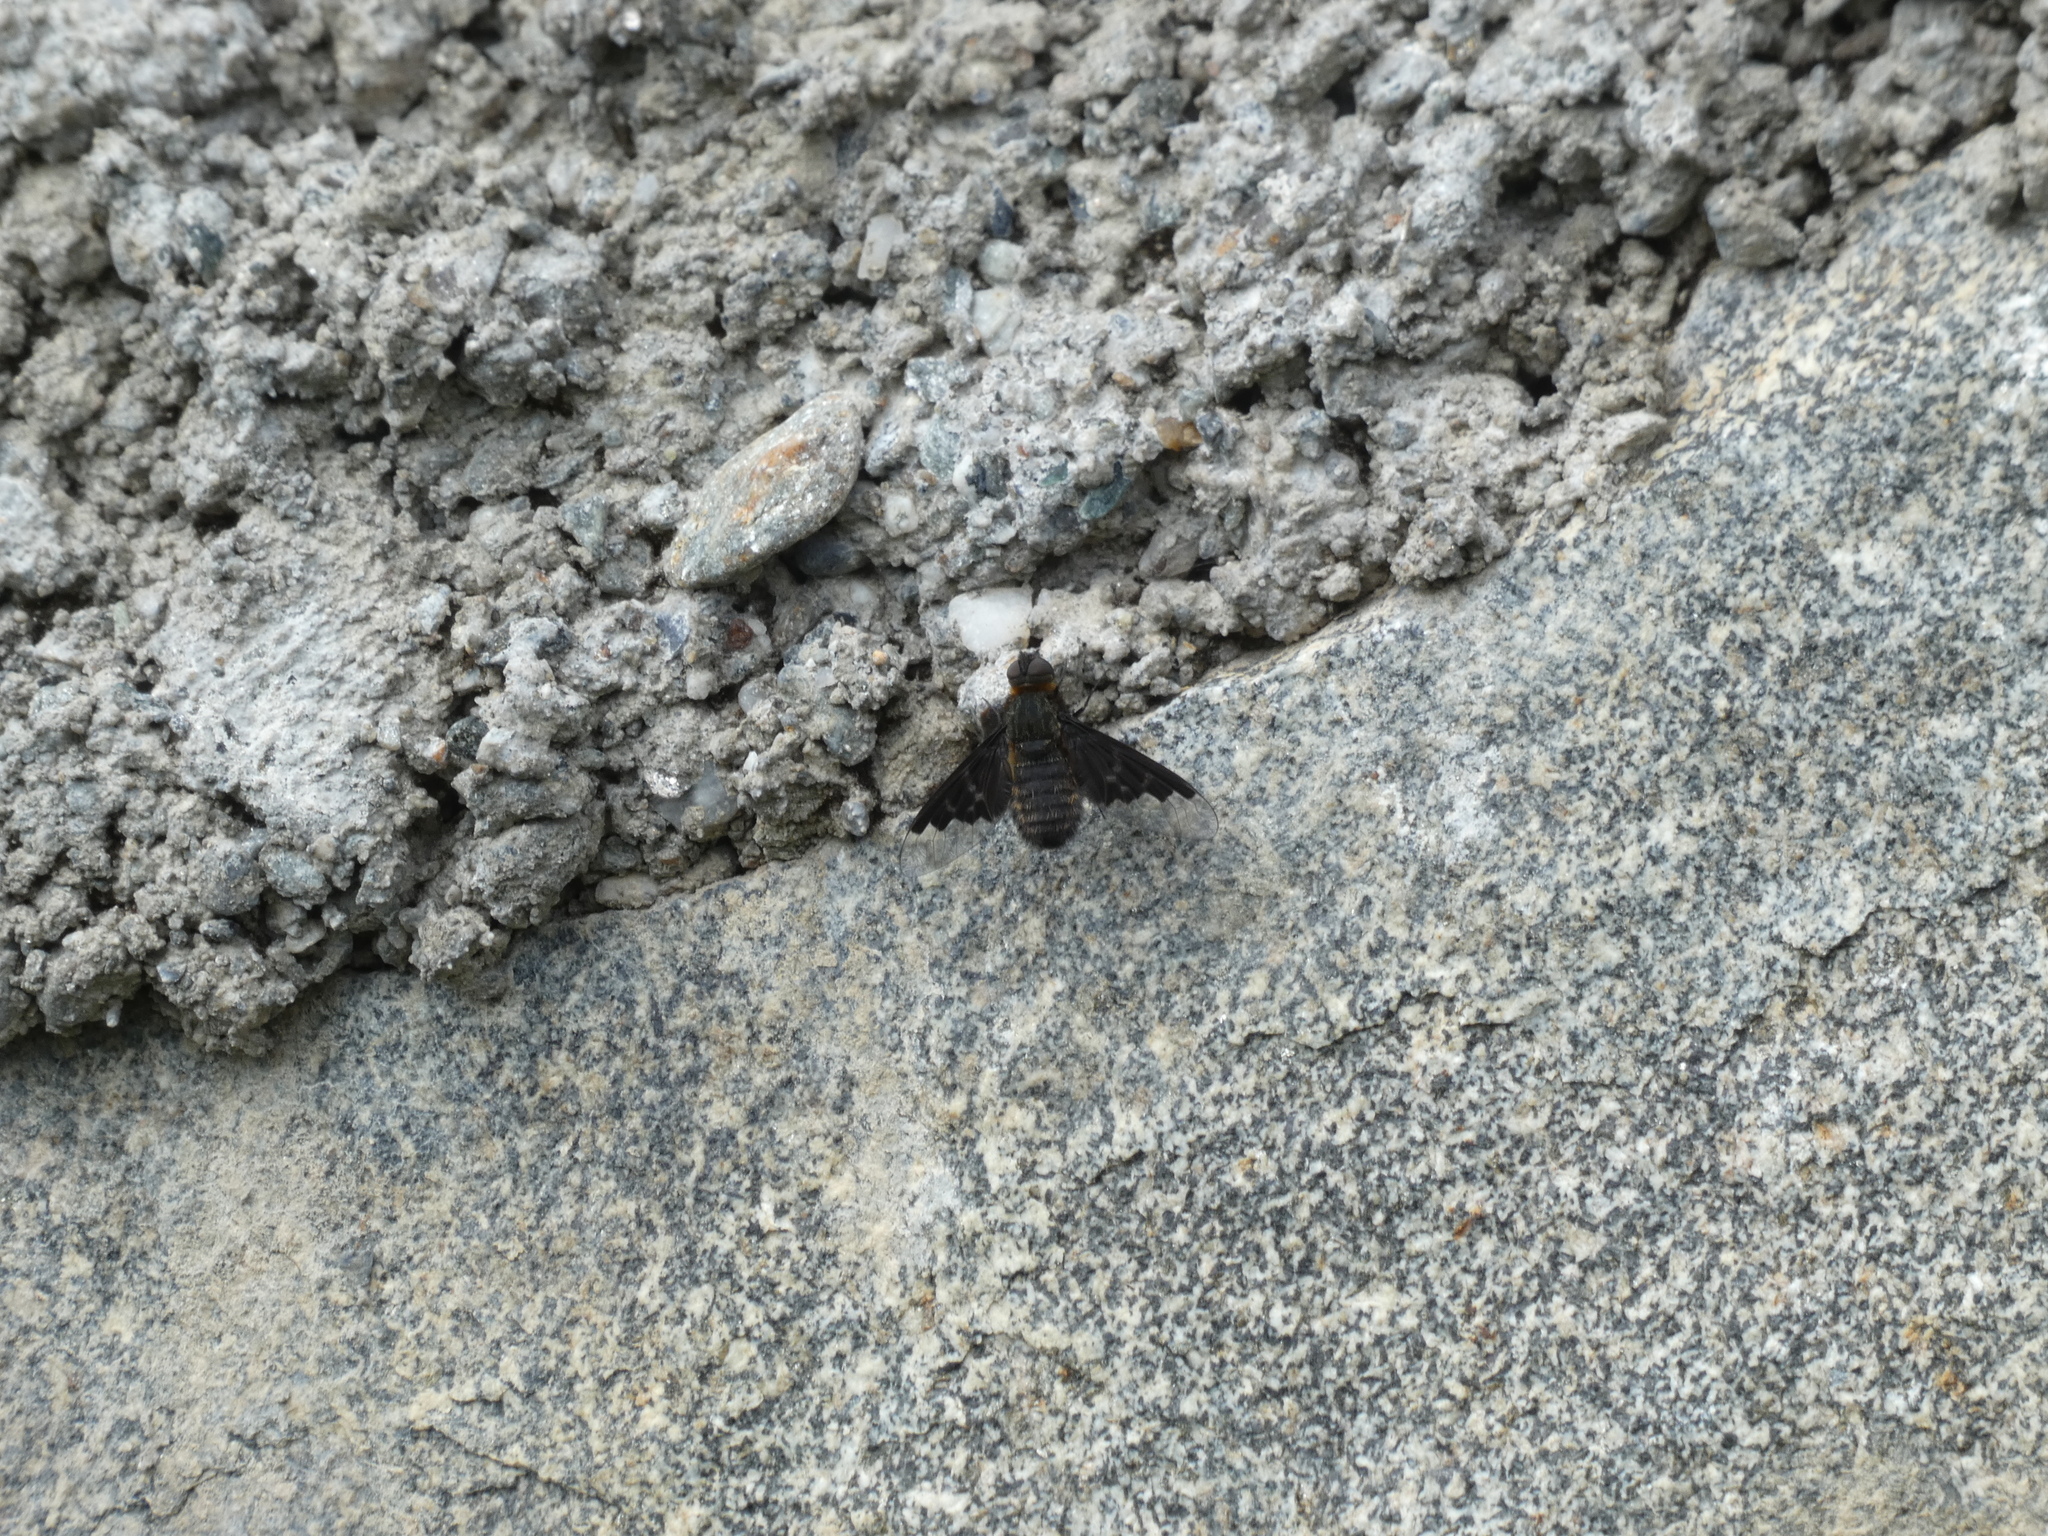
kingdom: Animalia
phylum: Arthropoda
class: Insecta
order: Diptera
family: Bombyliidae
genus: Hemipenthes
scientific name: Hemipenthes morio
